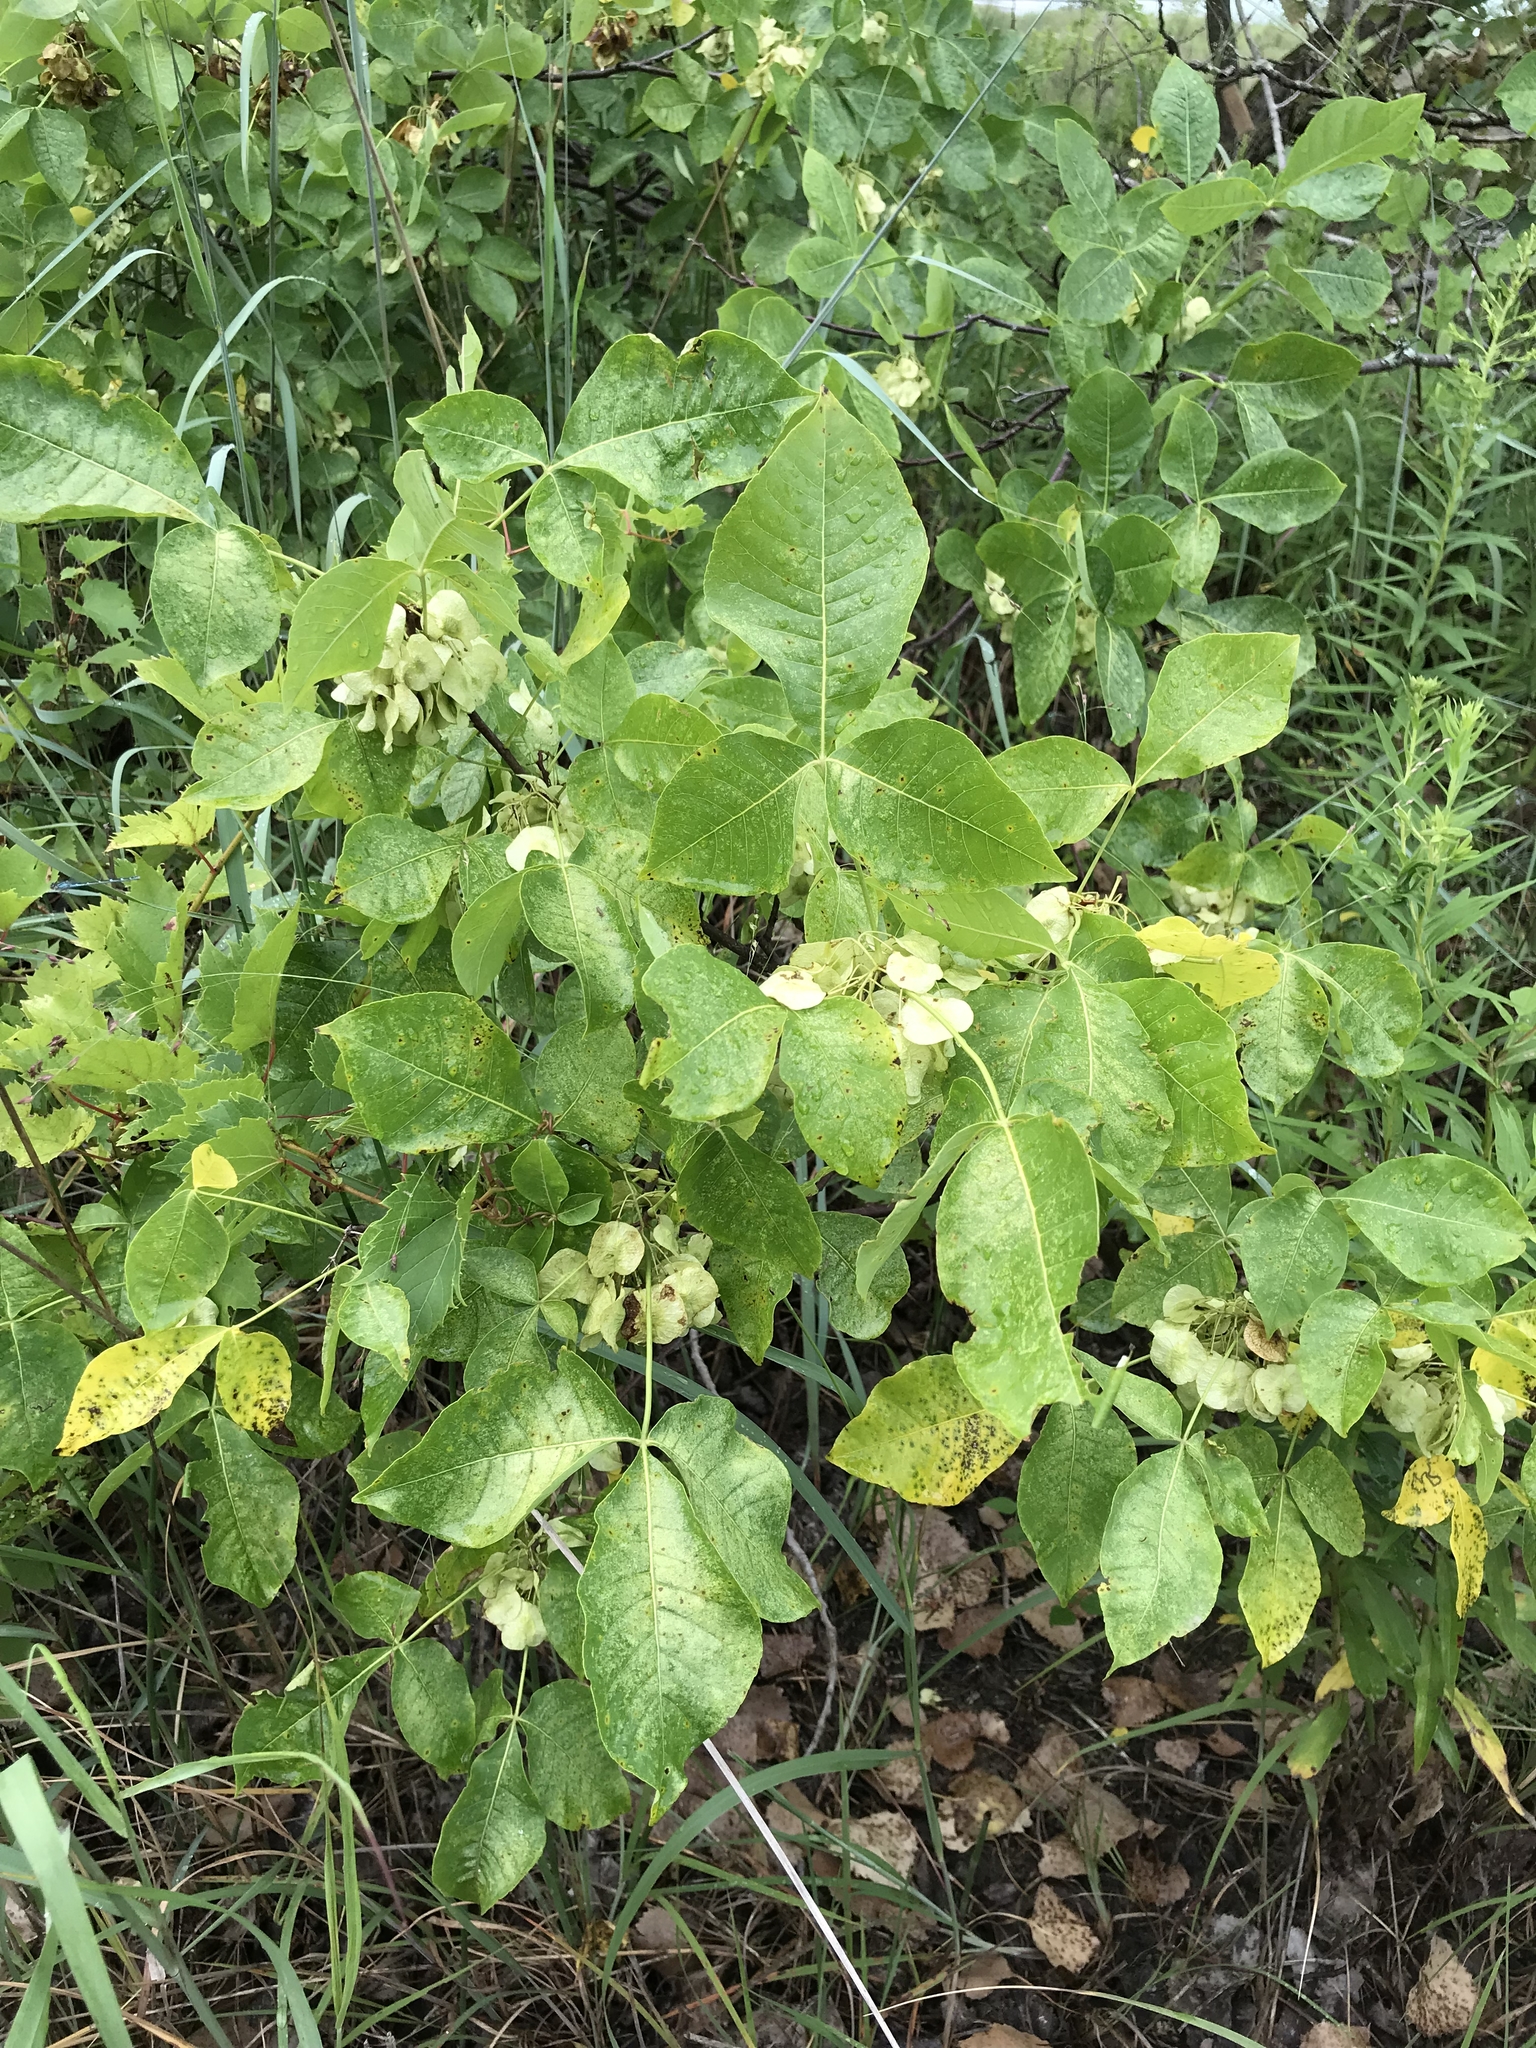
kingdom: Plantae
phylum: Tracheophyta
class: Magnoliopsida
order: Sapindales
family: Rutaceae
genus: Ptelea
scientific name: Ptelea trifoliata
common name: Common hop-tree
